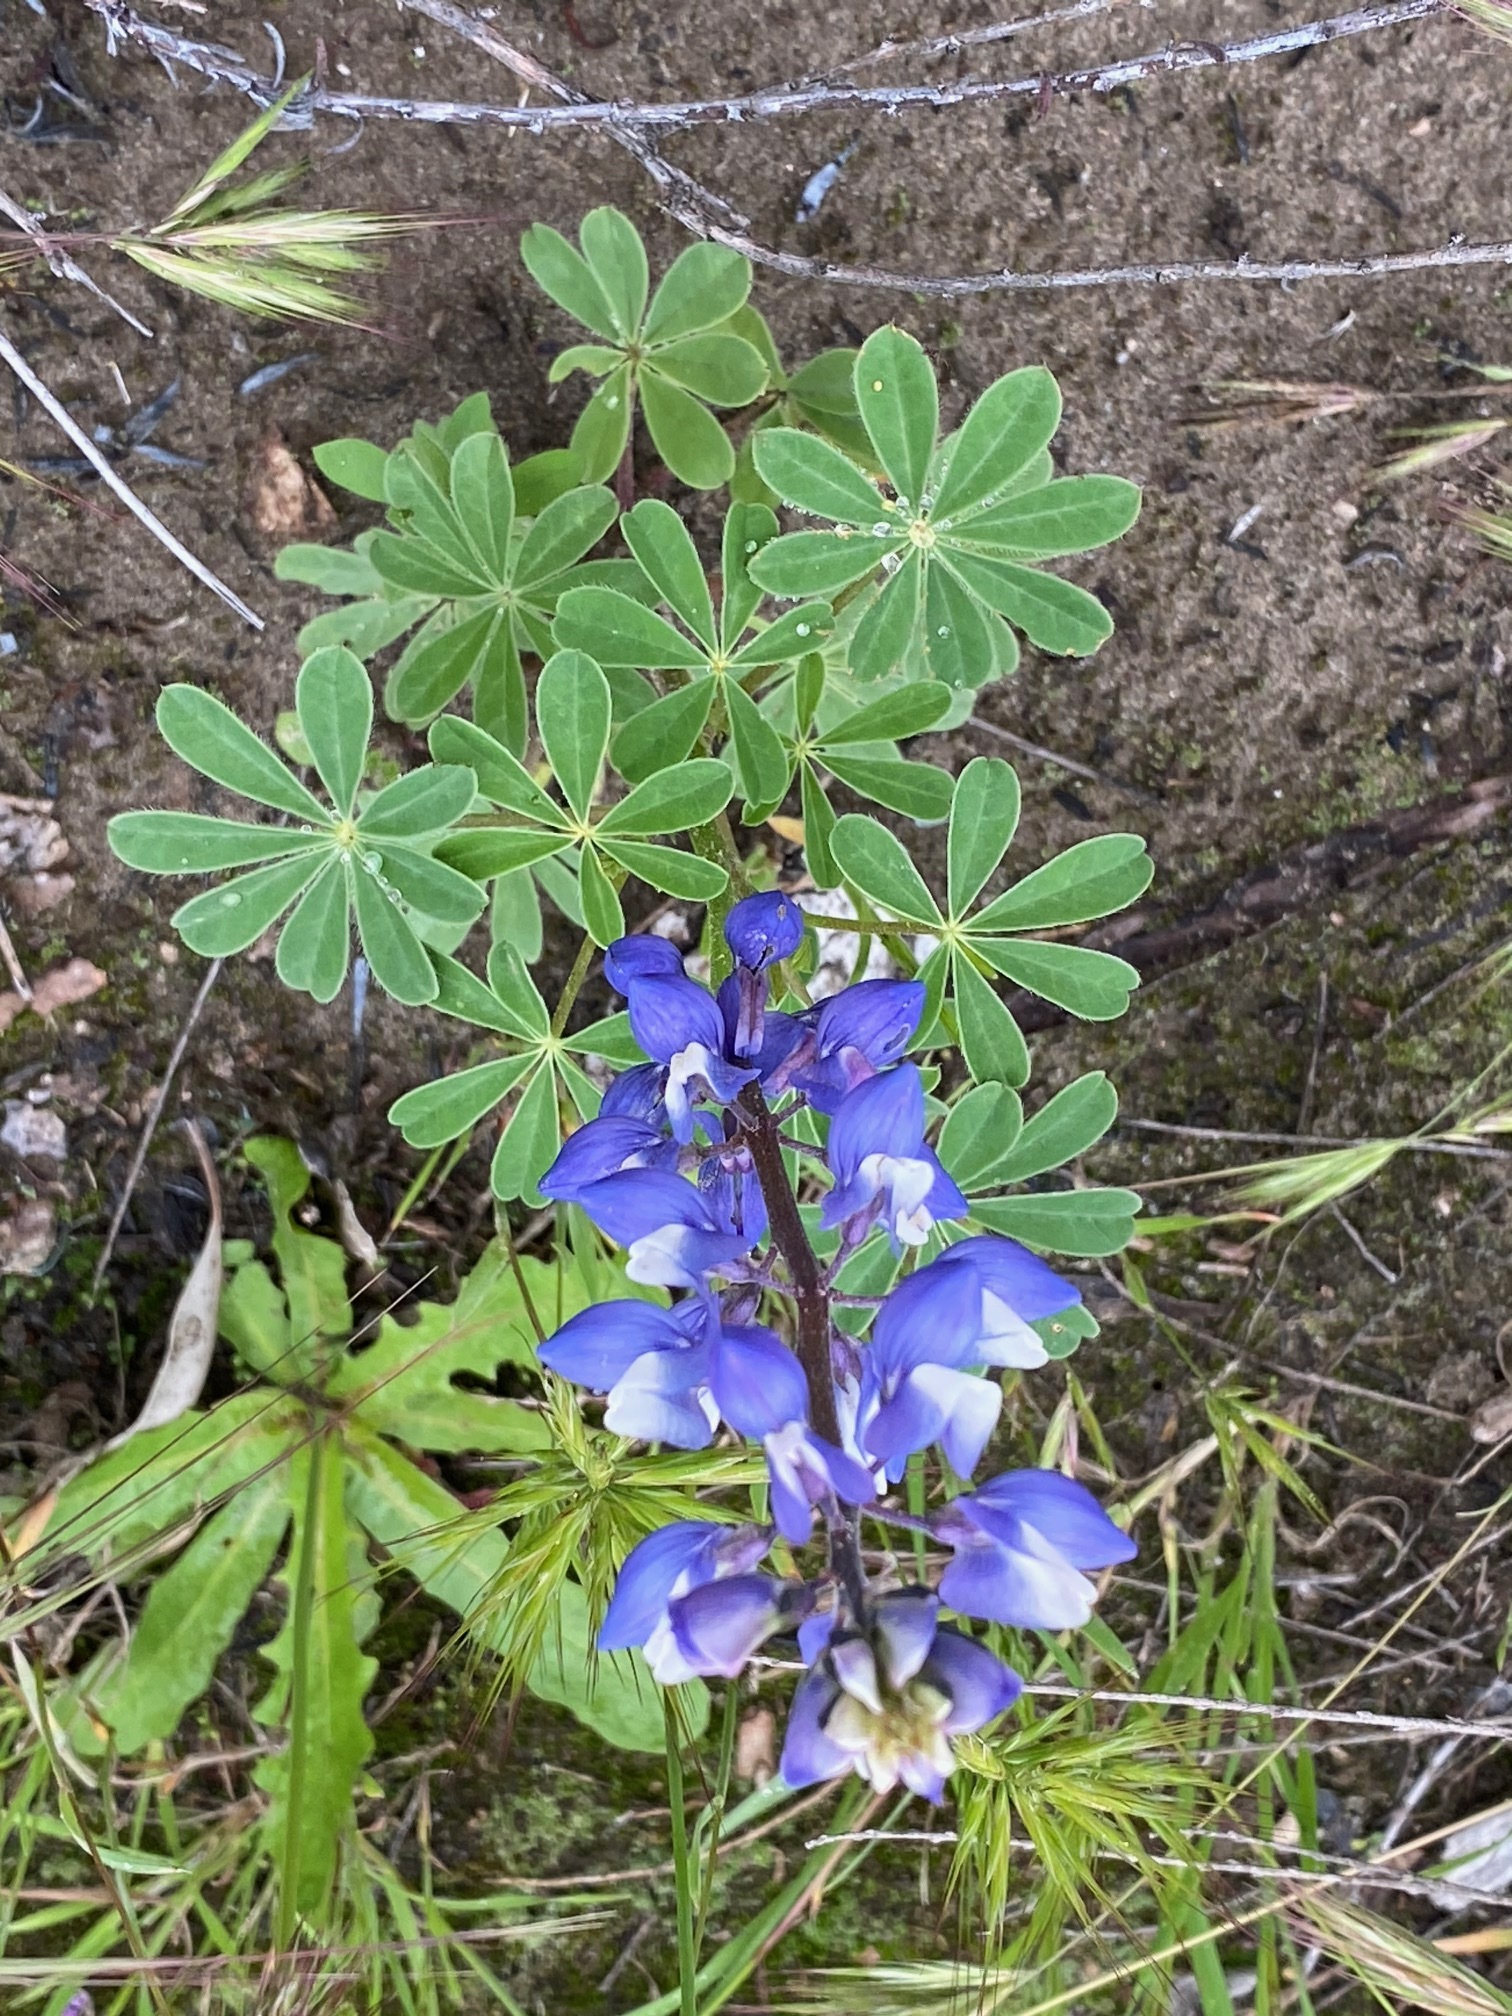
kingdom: Plantae
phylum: Tracheophyta
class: Magnoliopsida
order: Fabales
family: Fabaceae
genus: Lupinus
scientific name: Lupinus succulentus
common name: Arroyo lupine
